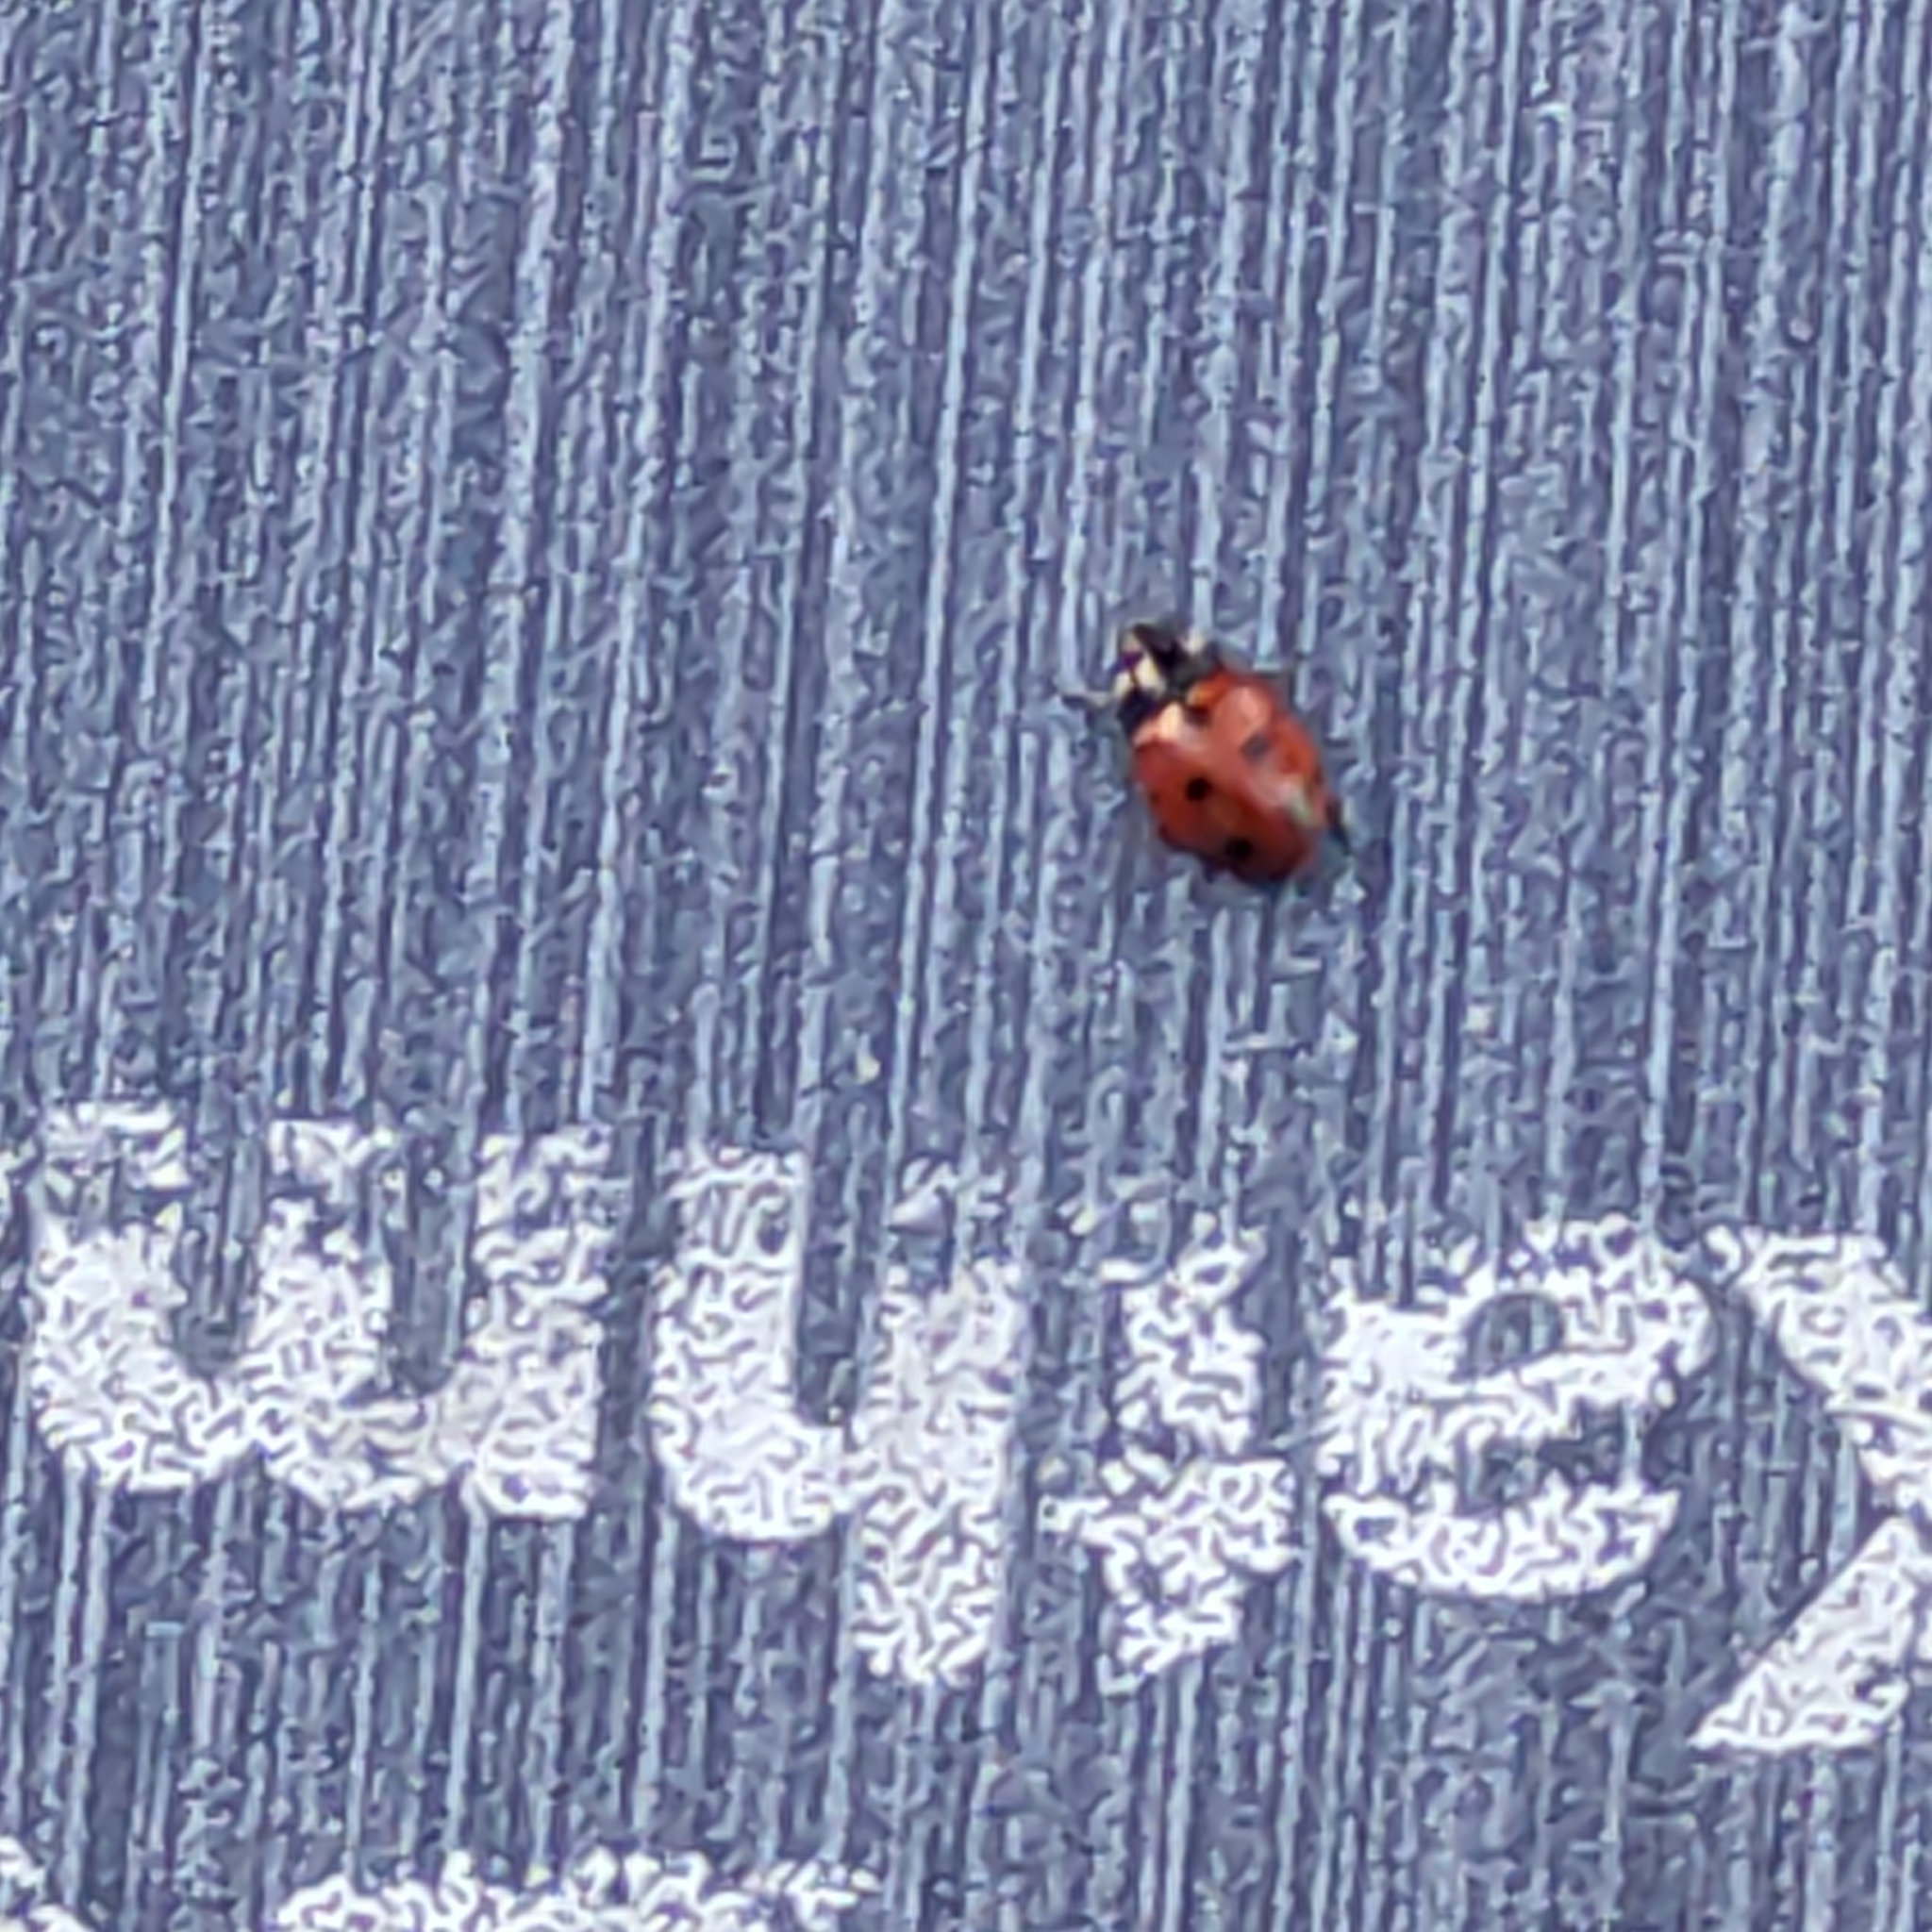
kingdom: Animalia
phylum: Arthropoda
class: Insecta
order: Coleoptera
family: Coccinellidae
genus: Coccinella
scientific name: Coccinella undecimpunctata
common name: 11-spot ladybird
